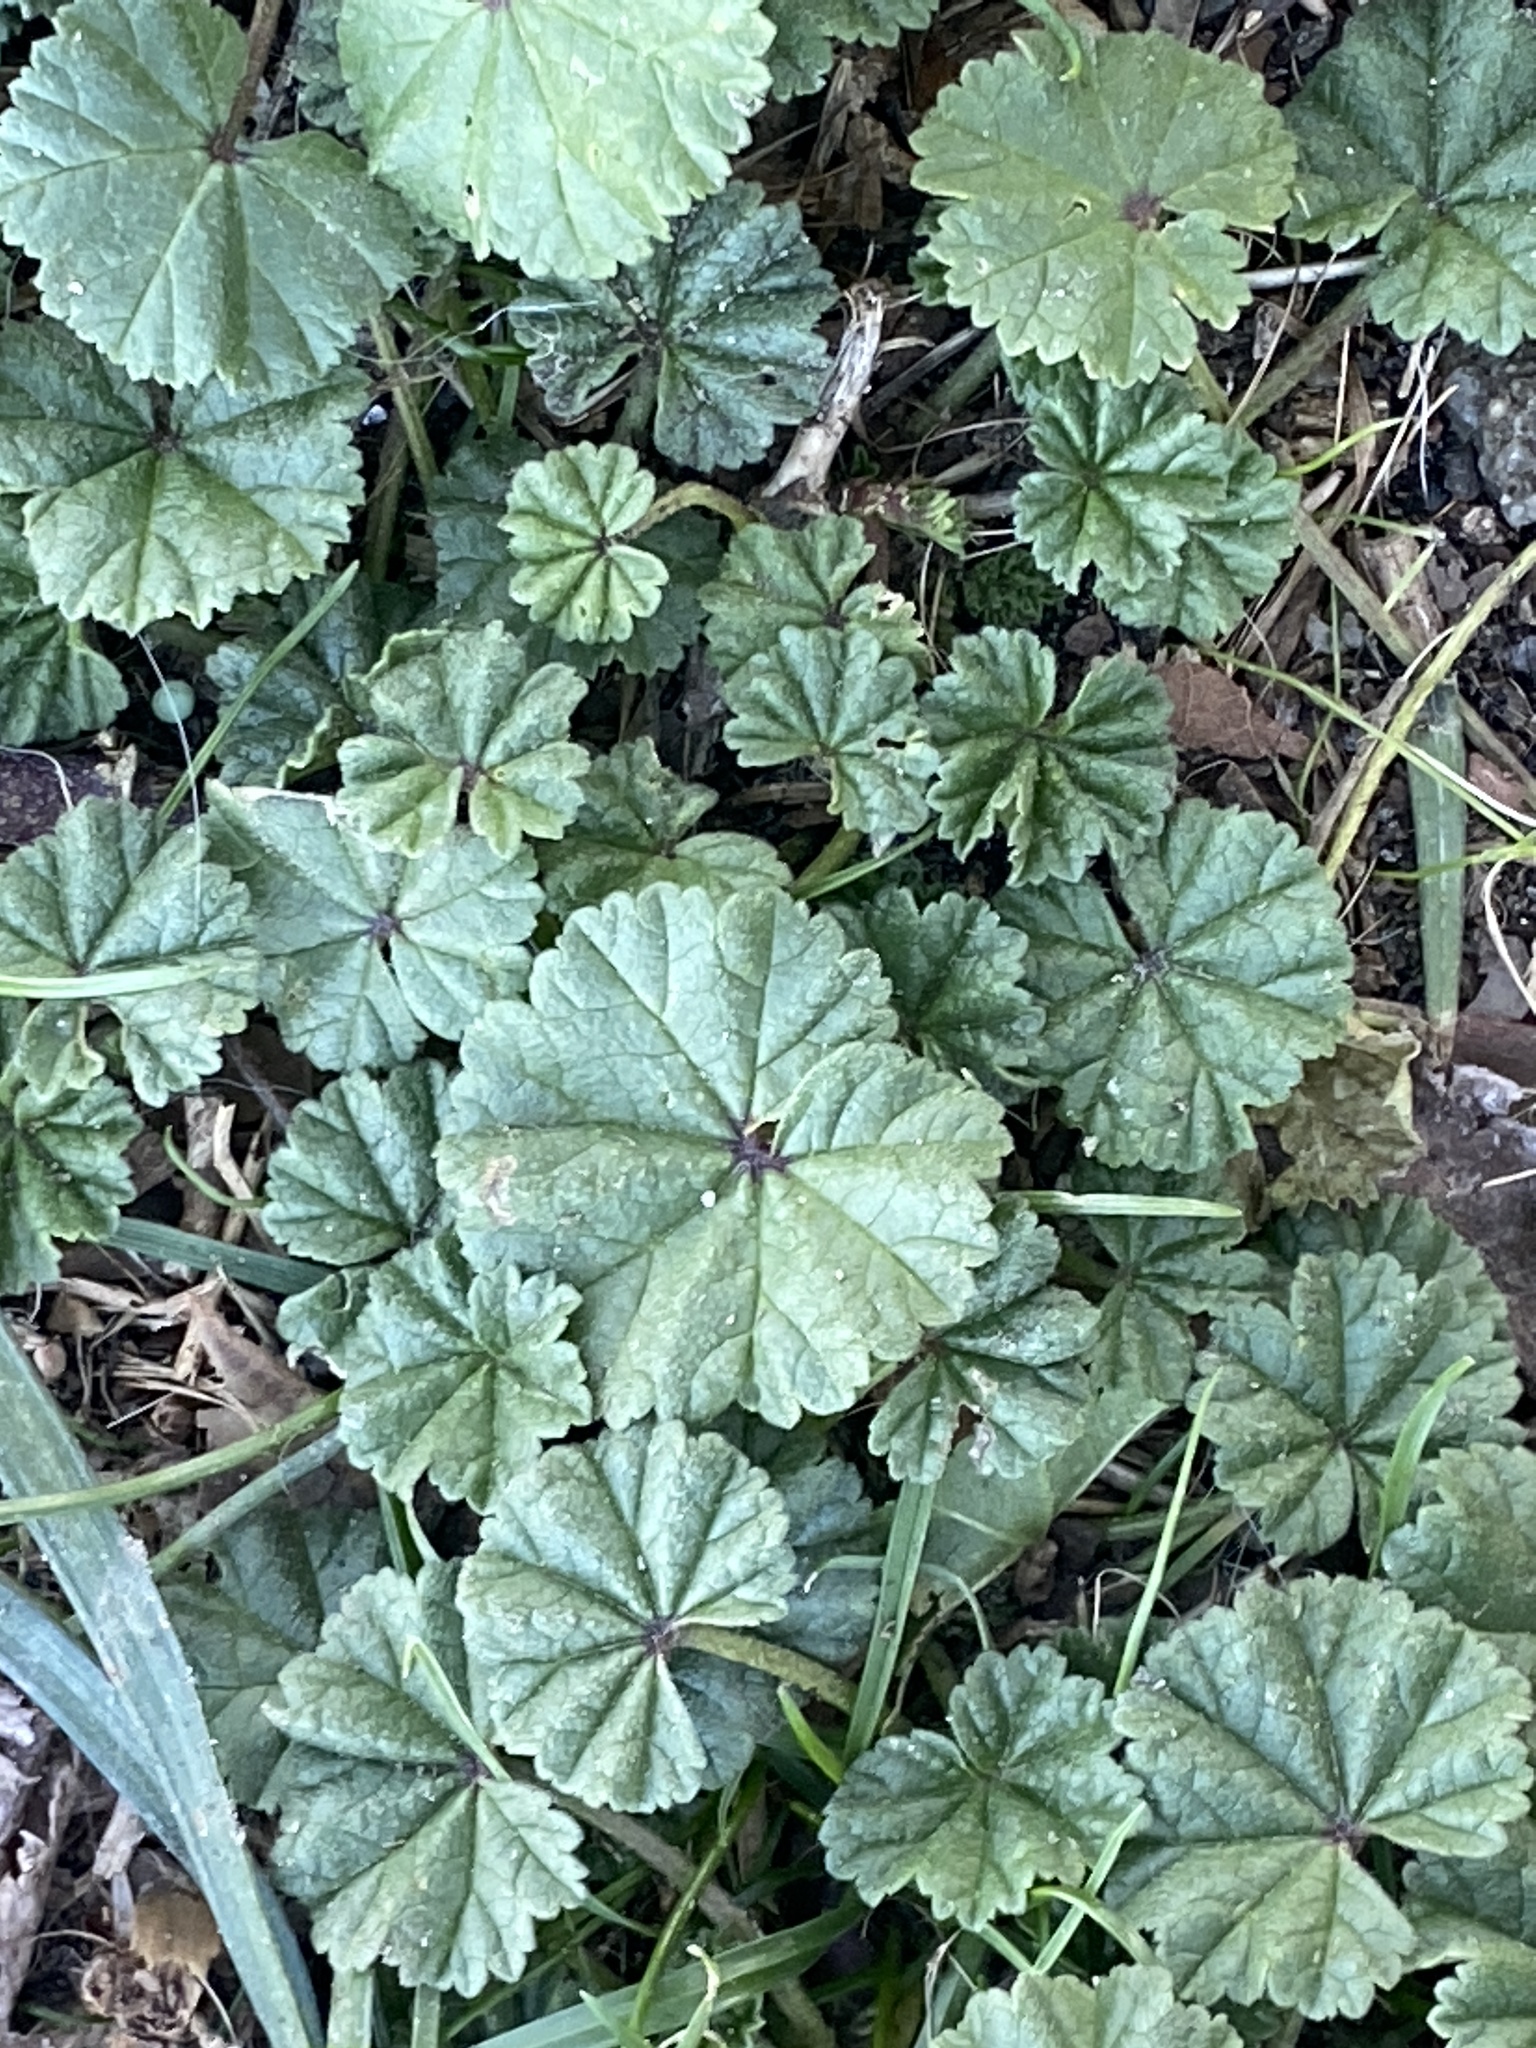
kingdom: Plantae
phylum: Tracheophyta
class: Magnoliopsida
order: Malvales
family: Malvaceae
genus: Malva
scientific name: Malva neglecta
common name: Common mallow
